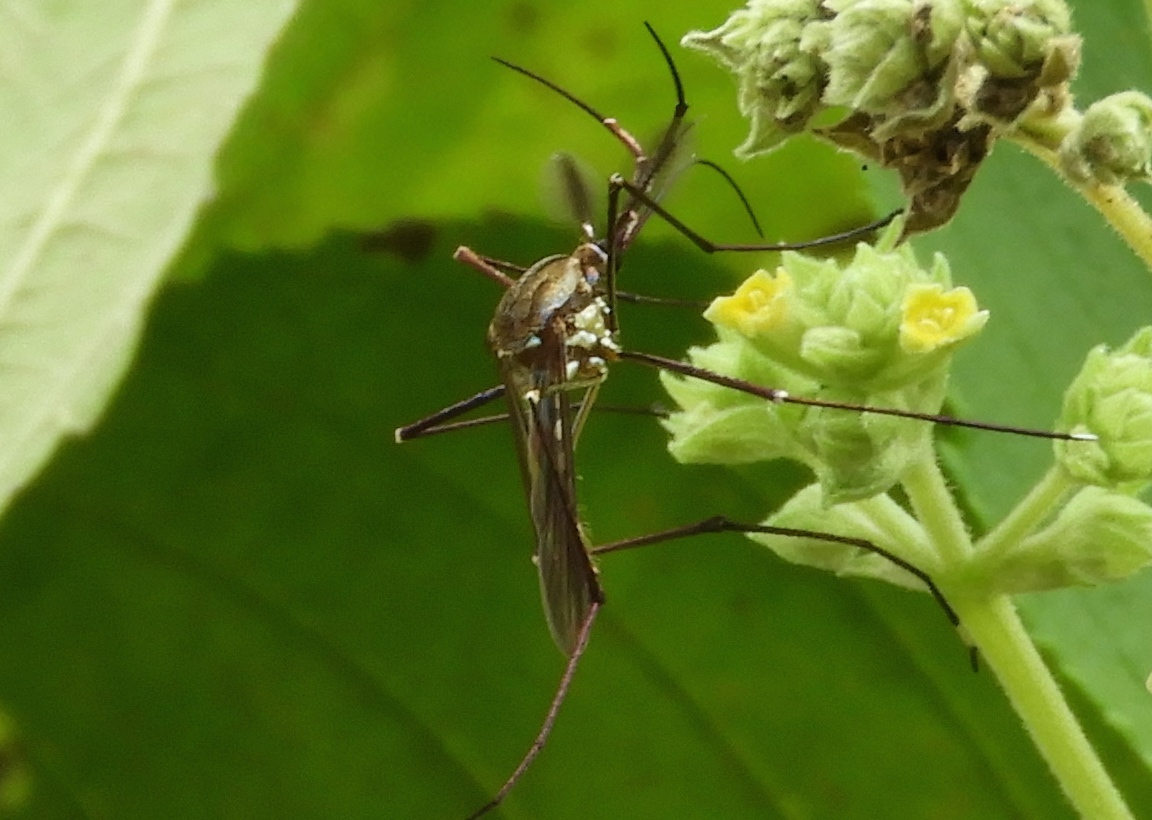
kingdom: Animalia
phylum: Arthropoda
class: Insecta
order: Diptera
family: Culicidae
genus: Ankylorhynchus
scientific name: Ankylorhynchus
